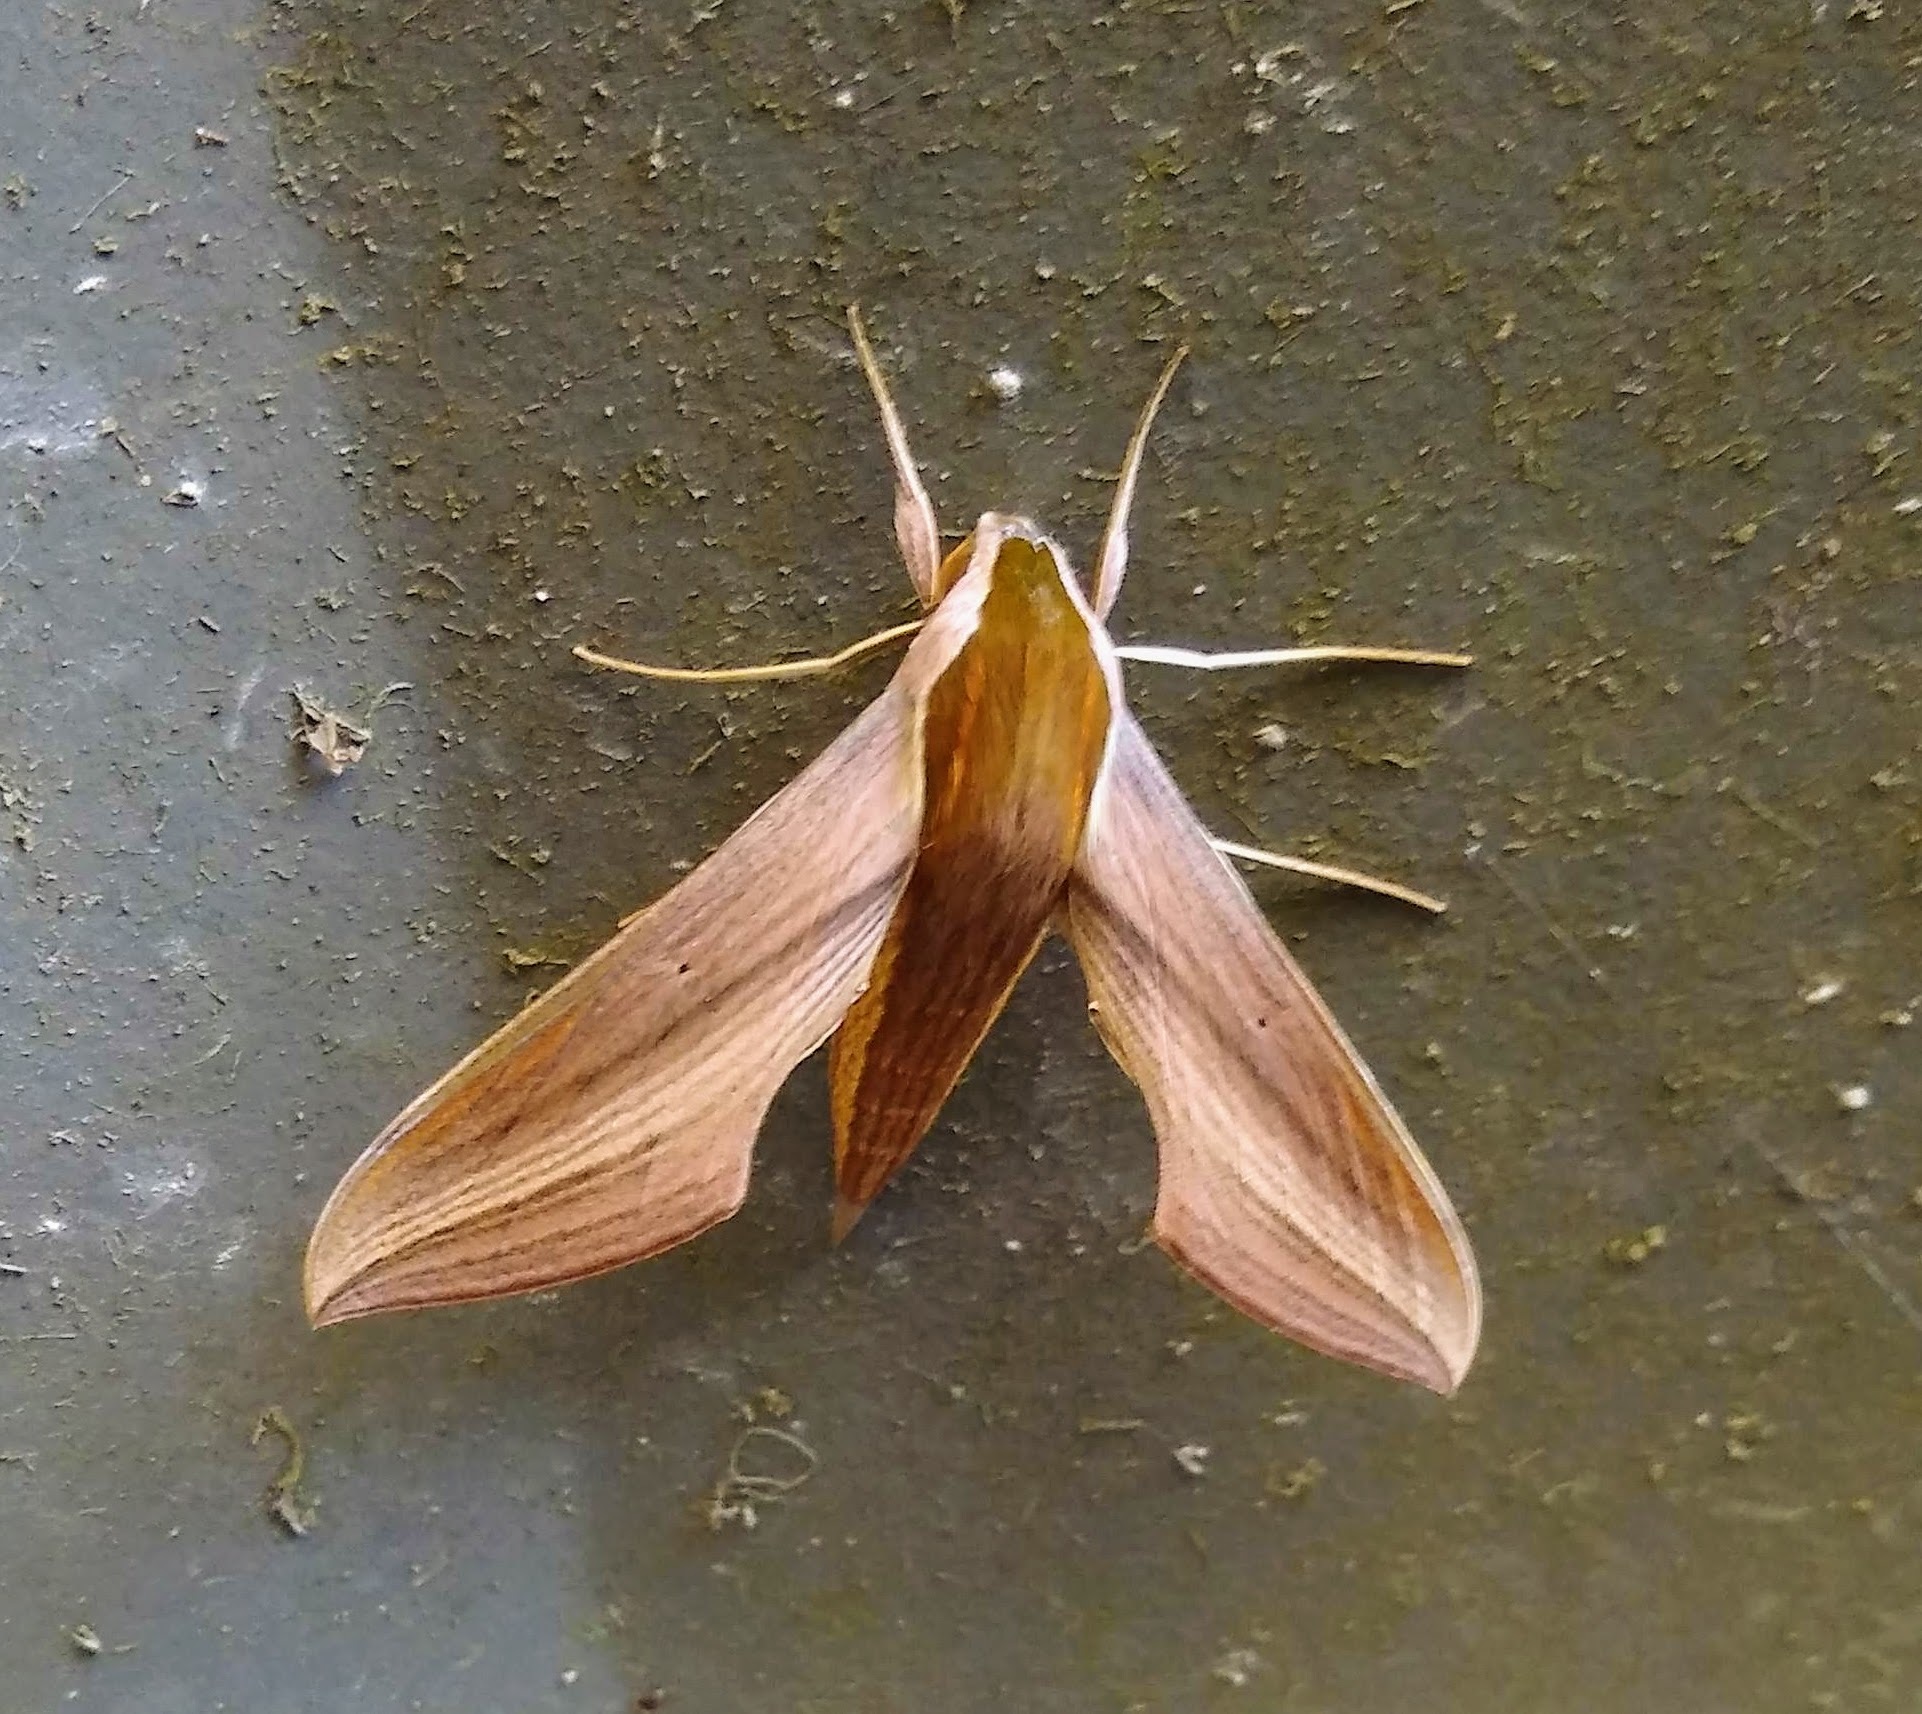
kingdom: Animalia
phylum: Arthropoda
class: Insecta
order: Lepidoptera
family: Sphingidae
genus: Xylophanes
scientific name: Xylophanes tersa
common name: Tersa sphinx
